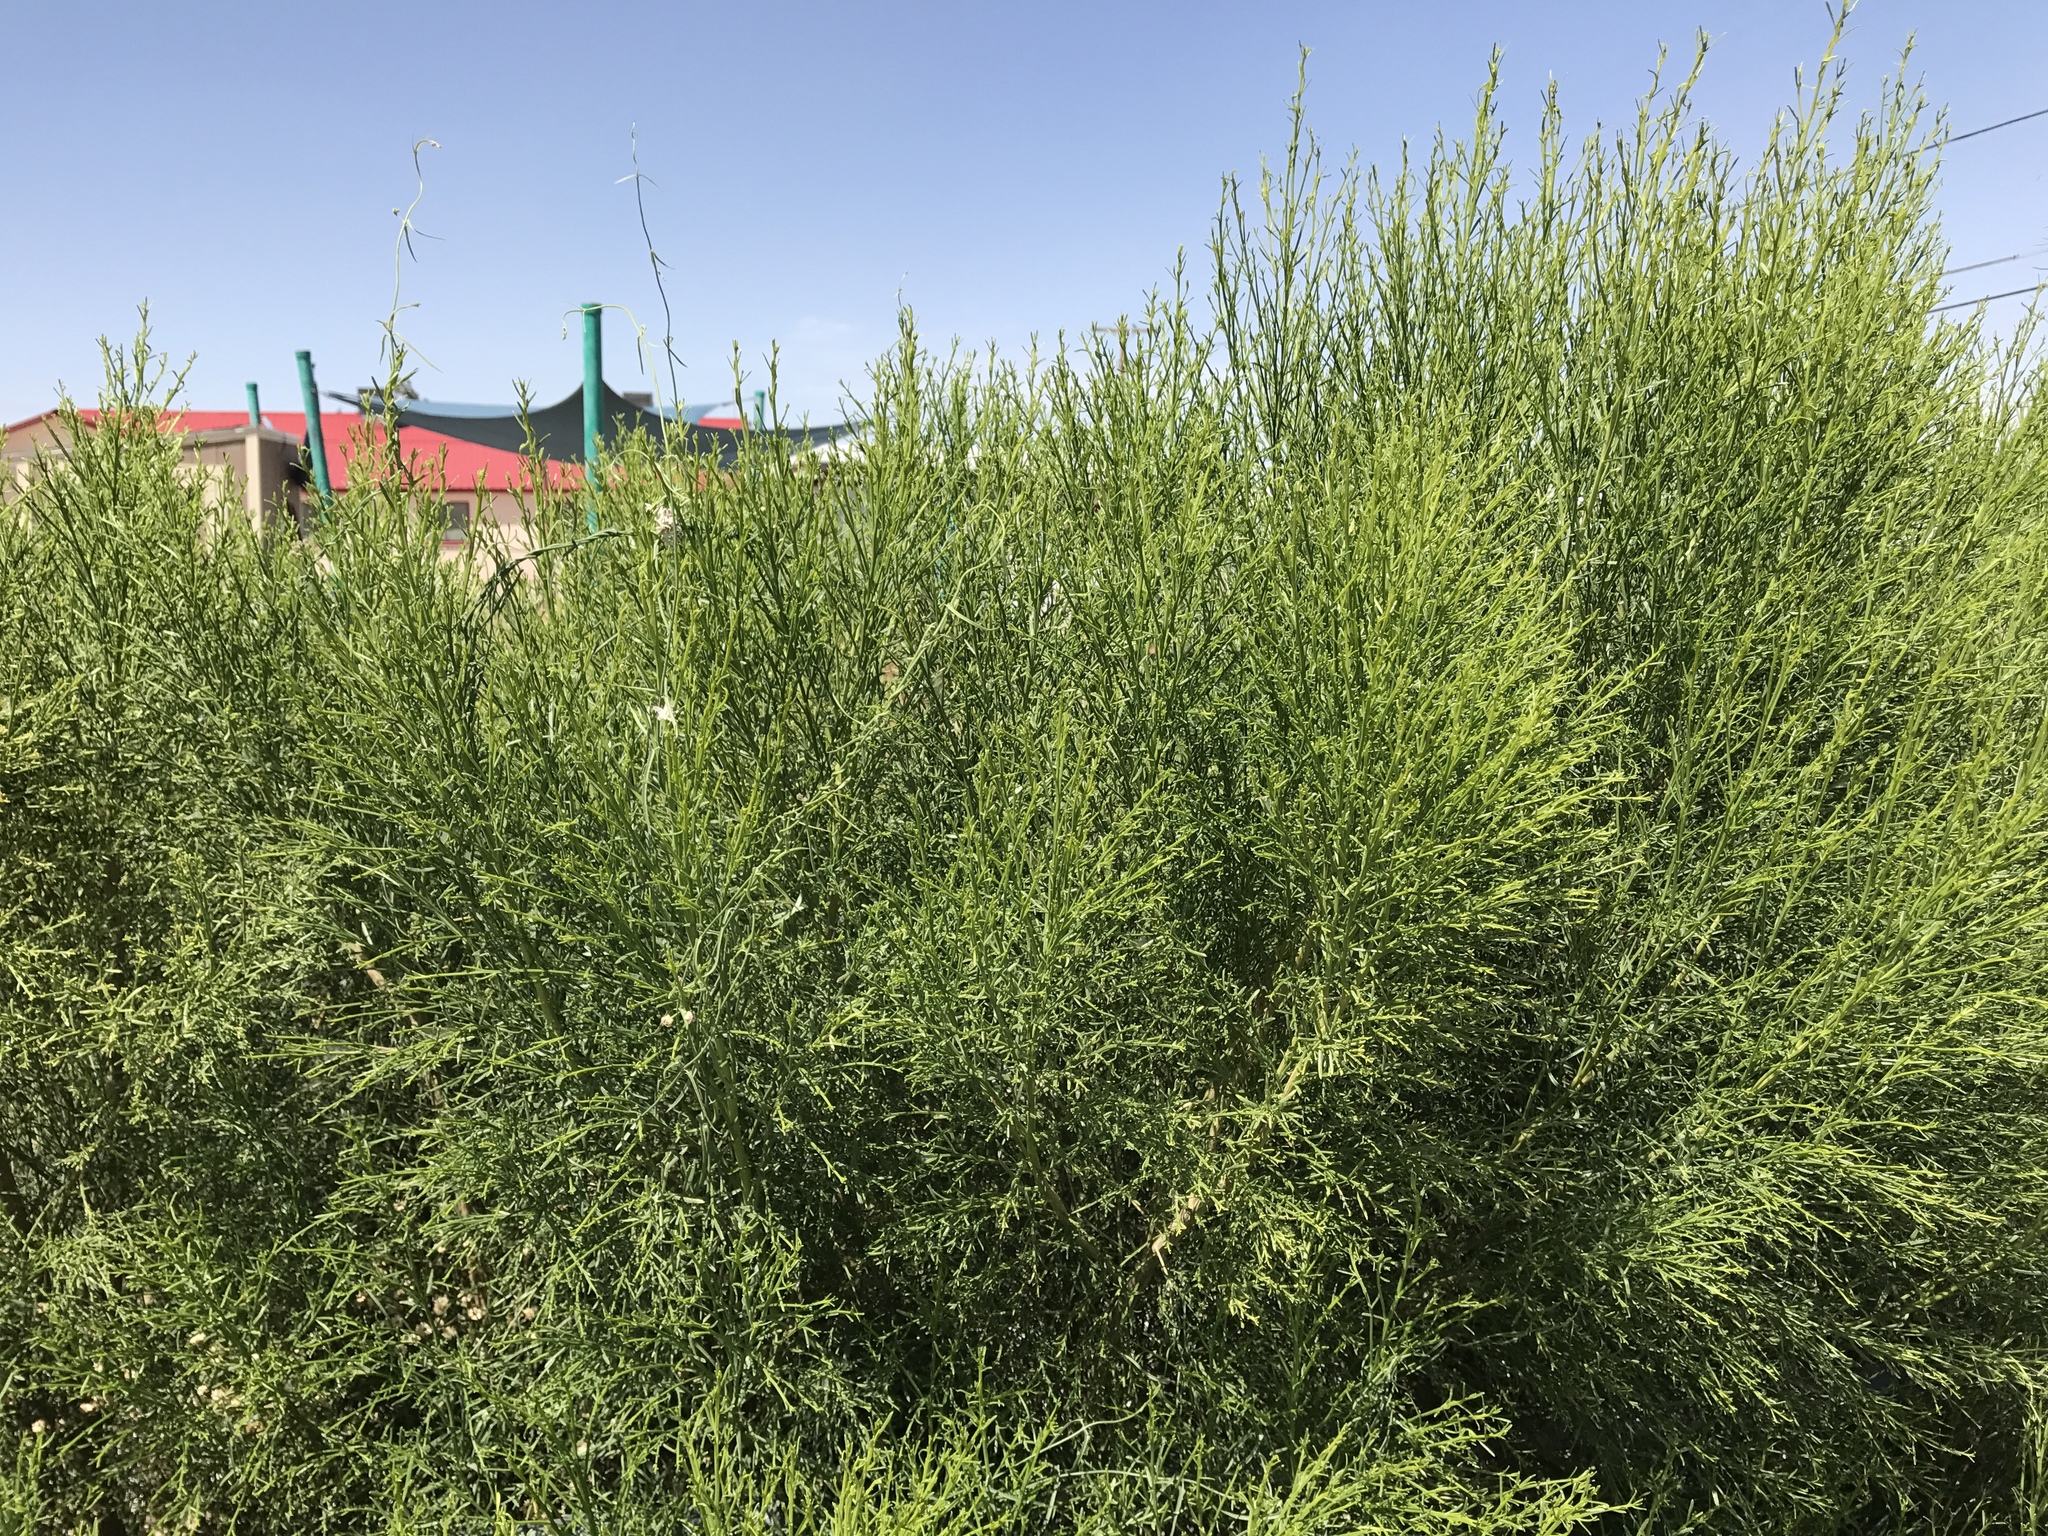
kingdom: Plantae
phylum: Tracheophyta
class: Magnoliopsida
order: Asterales
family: Asteraceae
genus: Baccharis
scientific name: Baccharis sarothroides
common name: Desert-broom
